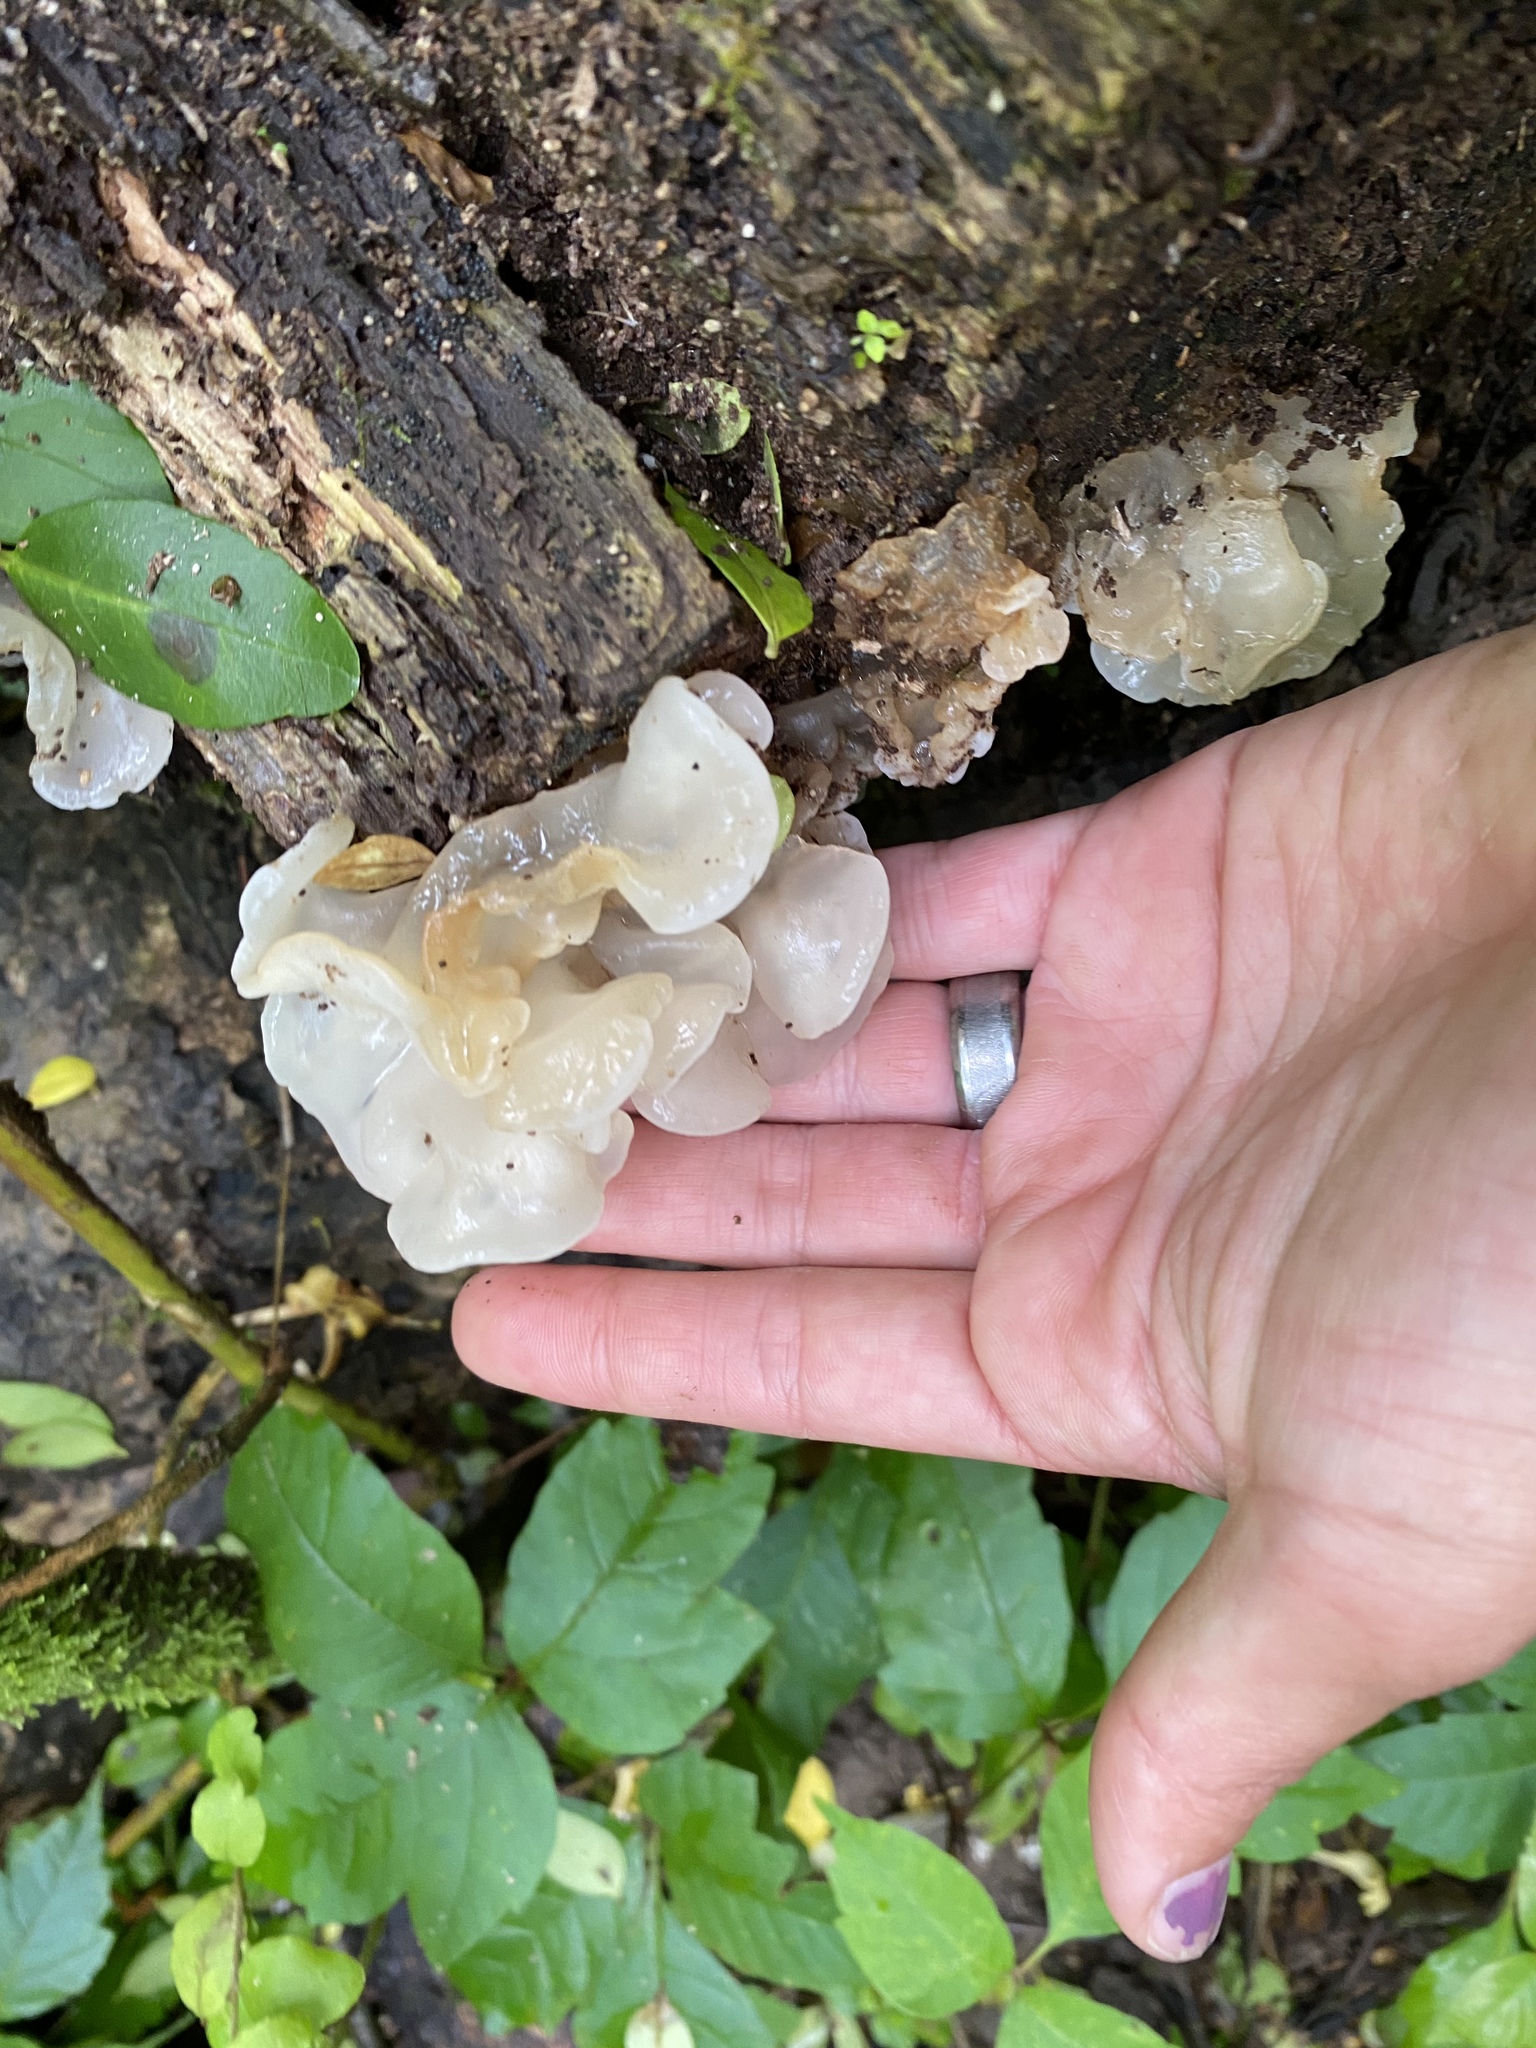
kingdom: Fungi
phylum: Basidiomycota
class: Agaricomycetes
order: Auriculariales
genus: Ductifera
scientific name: Ductifera pululahuana
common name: White jelly fungus
